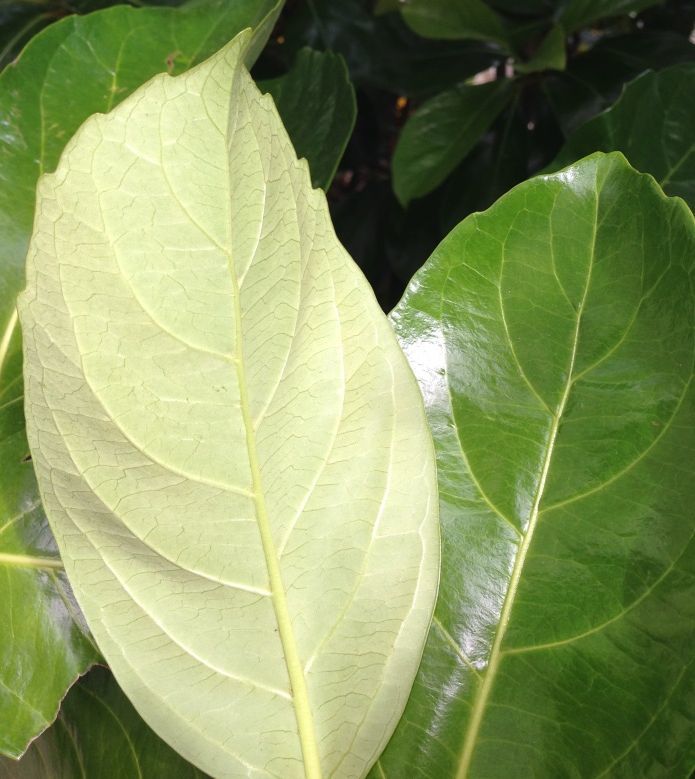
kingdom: Plantae
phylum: Tracheophyta
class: Magnoliopsida
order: Dipsacales
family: Viburnaceae
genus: Viburnum
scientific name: Viburnum odoratissimum
